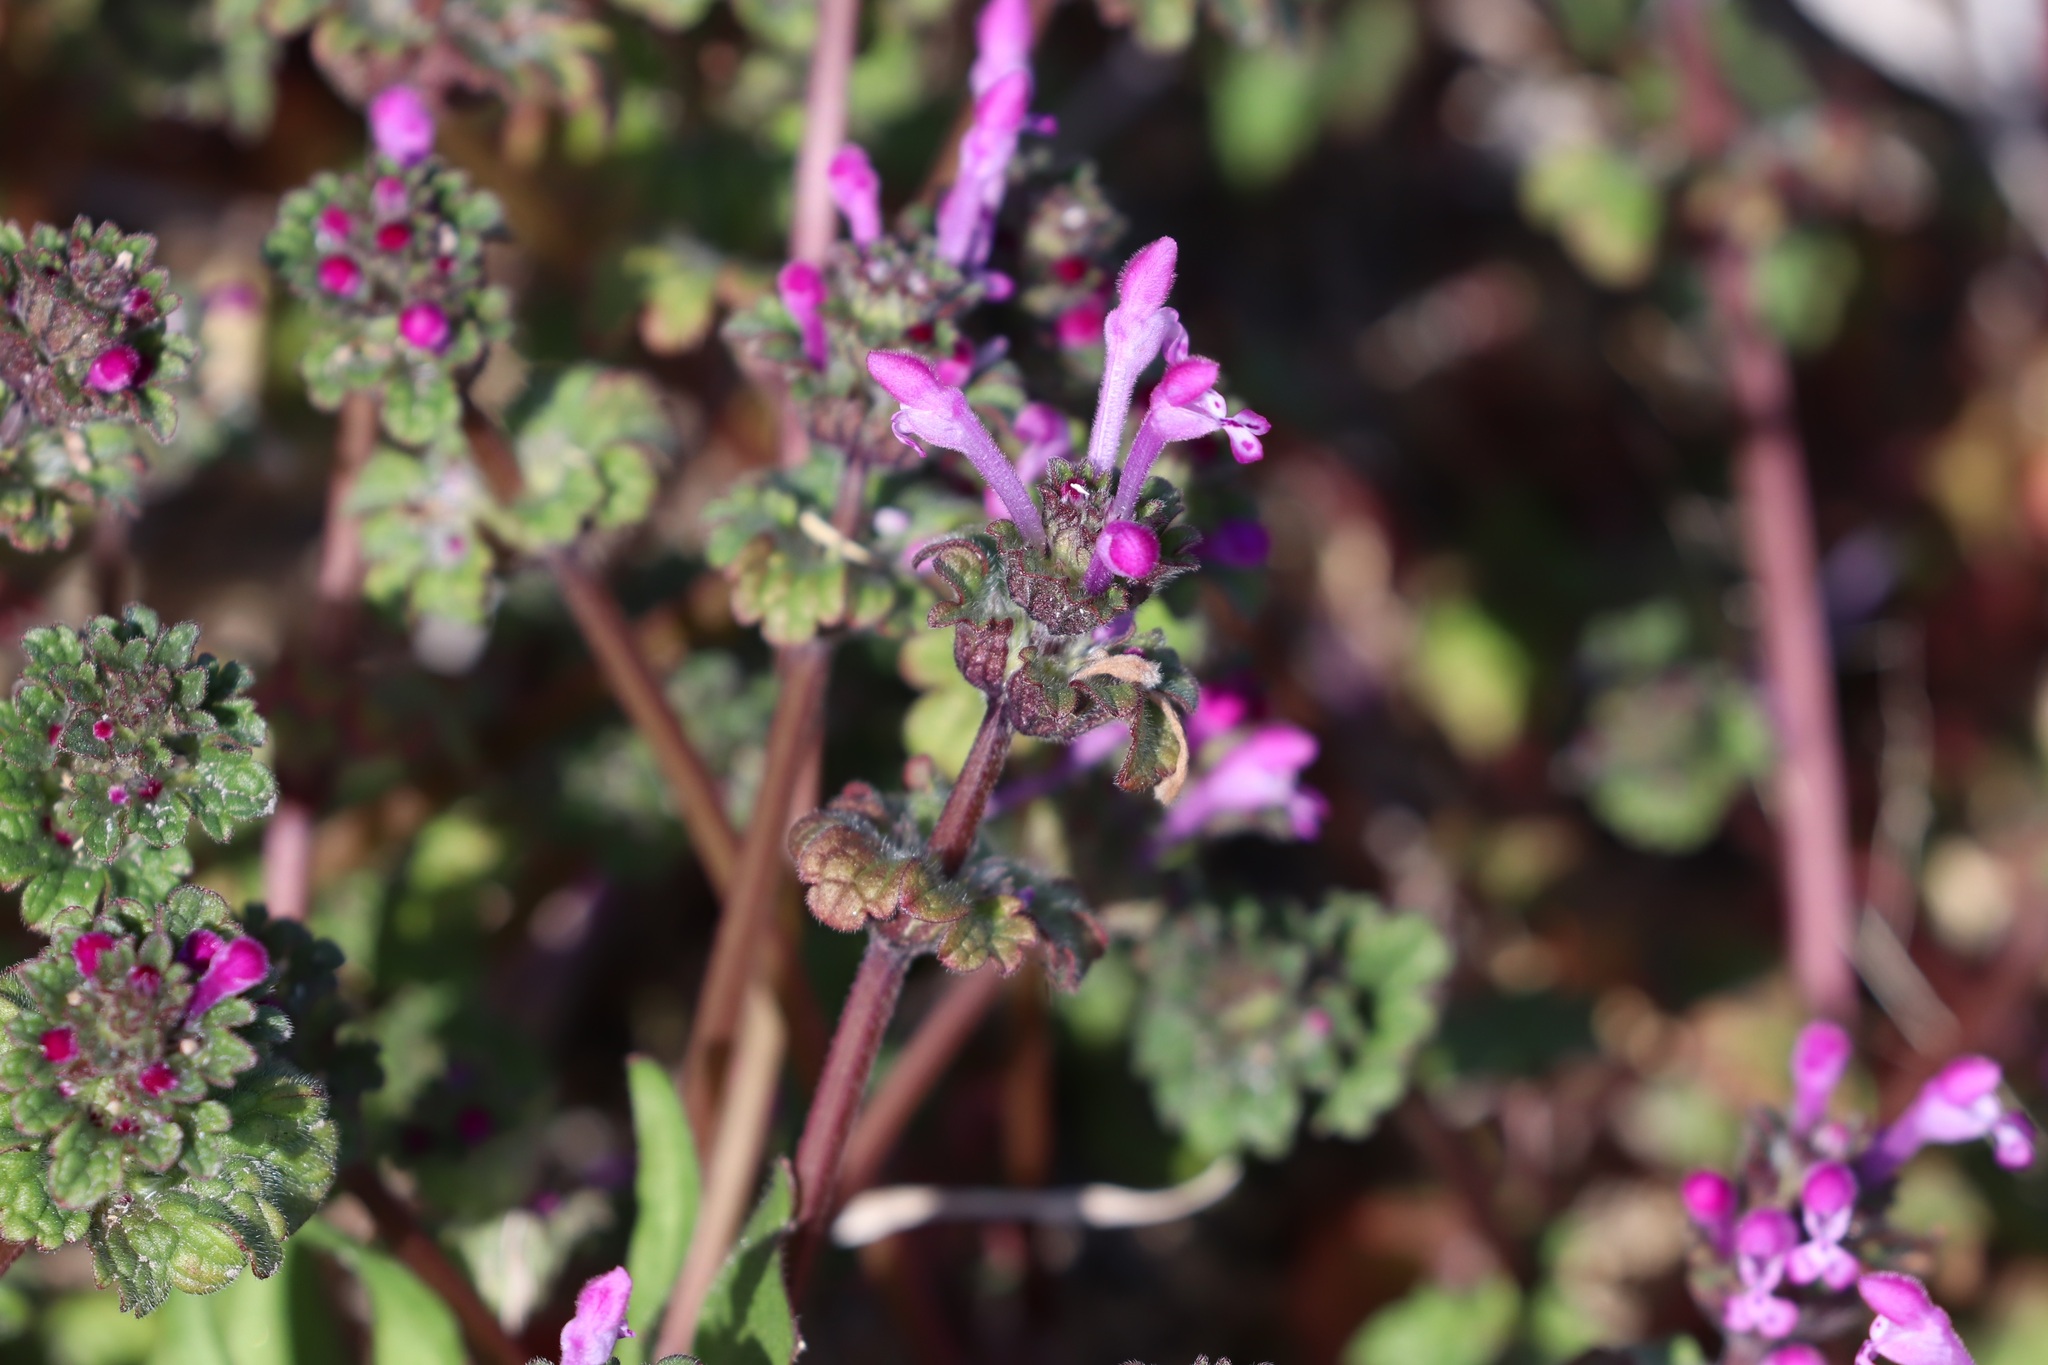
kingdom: Plantae
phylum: Tracheophyta
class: Magnoliopsida
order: Lamiales
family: Lamiaceae
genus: Lamium
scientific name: Lamium amplexicaule
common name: Henbit dead-nettle
